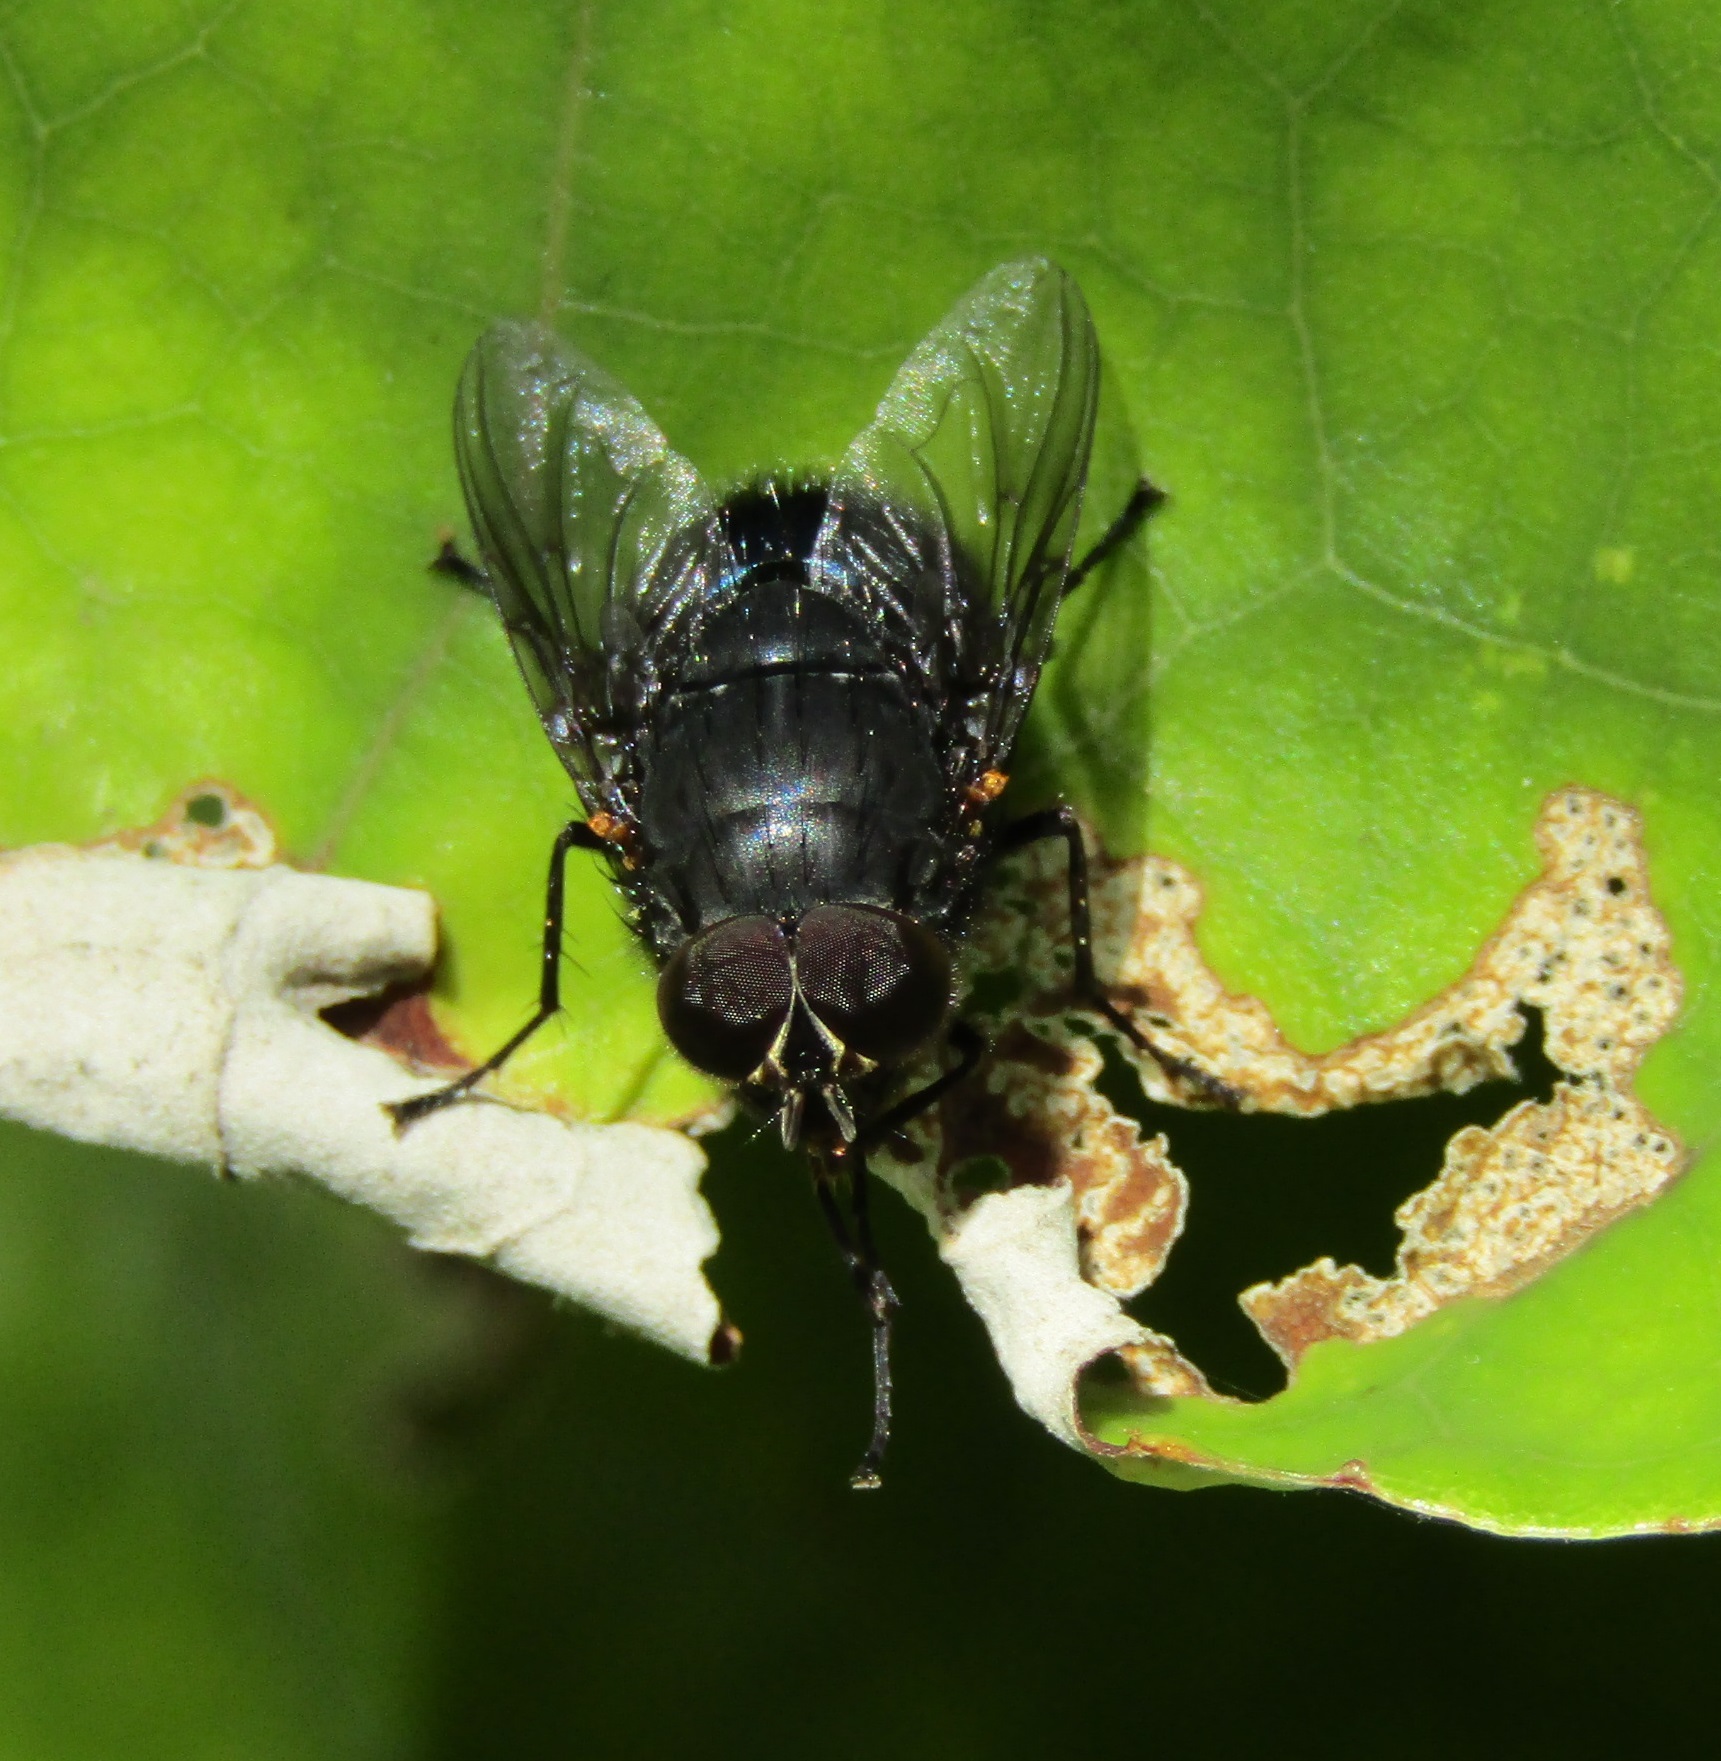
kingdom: Animalia
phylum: Arthropoda
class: Insecta
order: Diptera
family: Calliphoridae
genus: Calliphora
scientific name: Calliphora quadrimaculata
